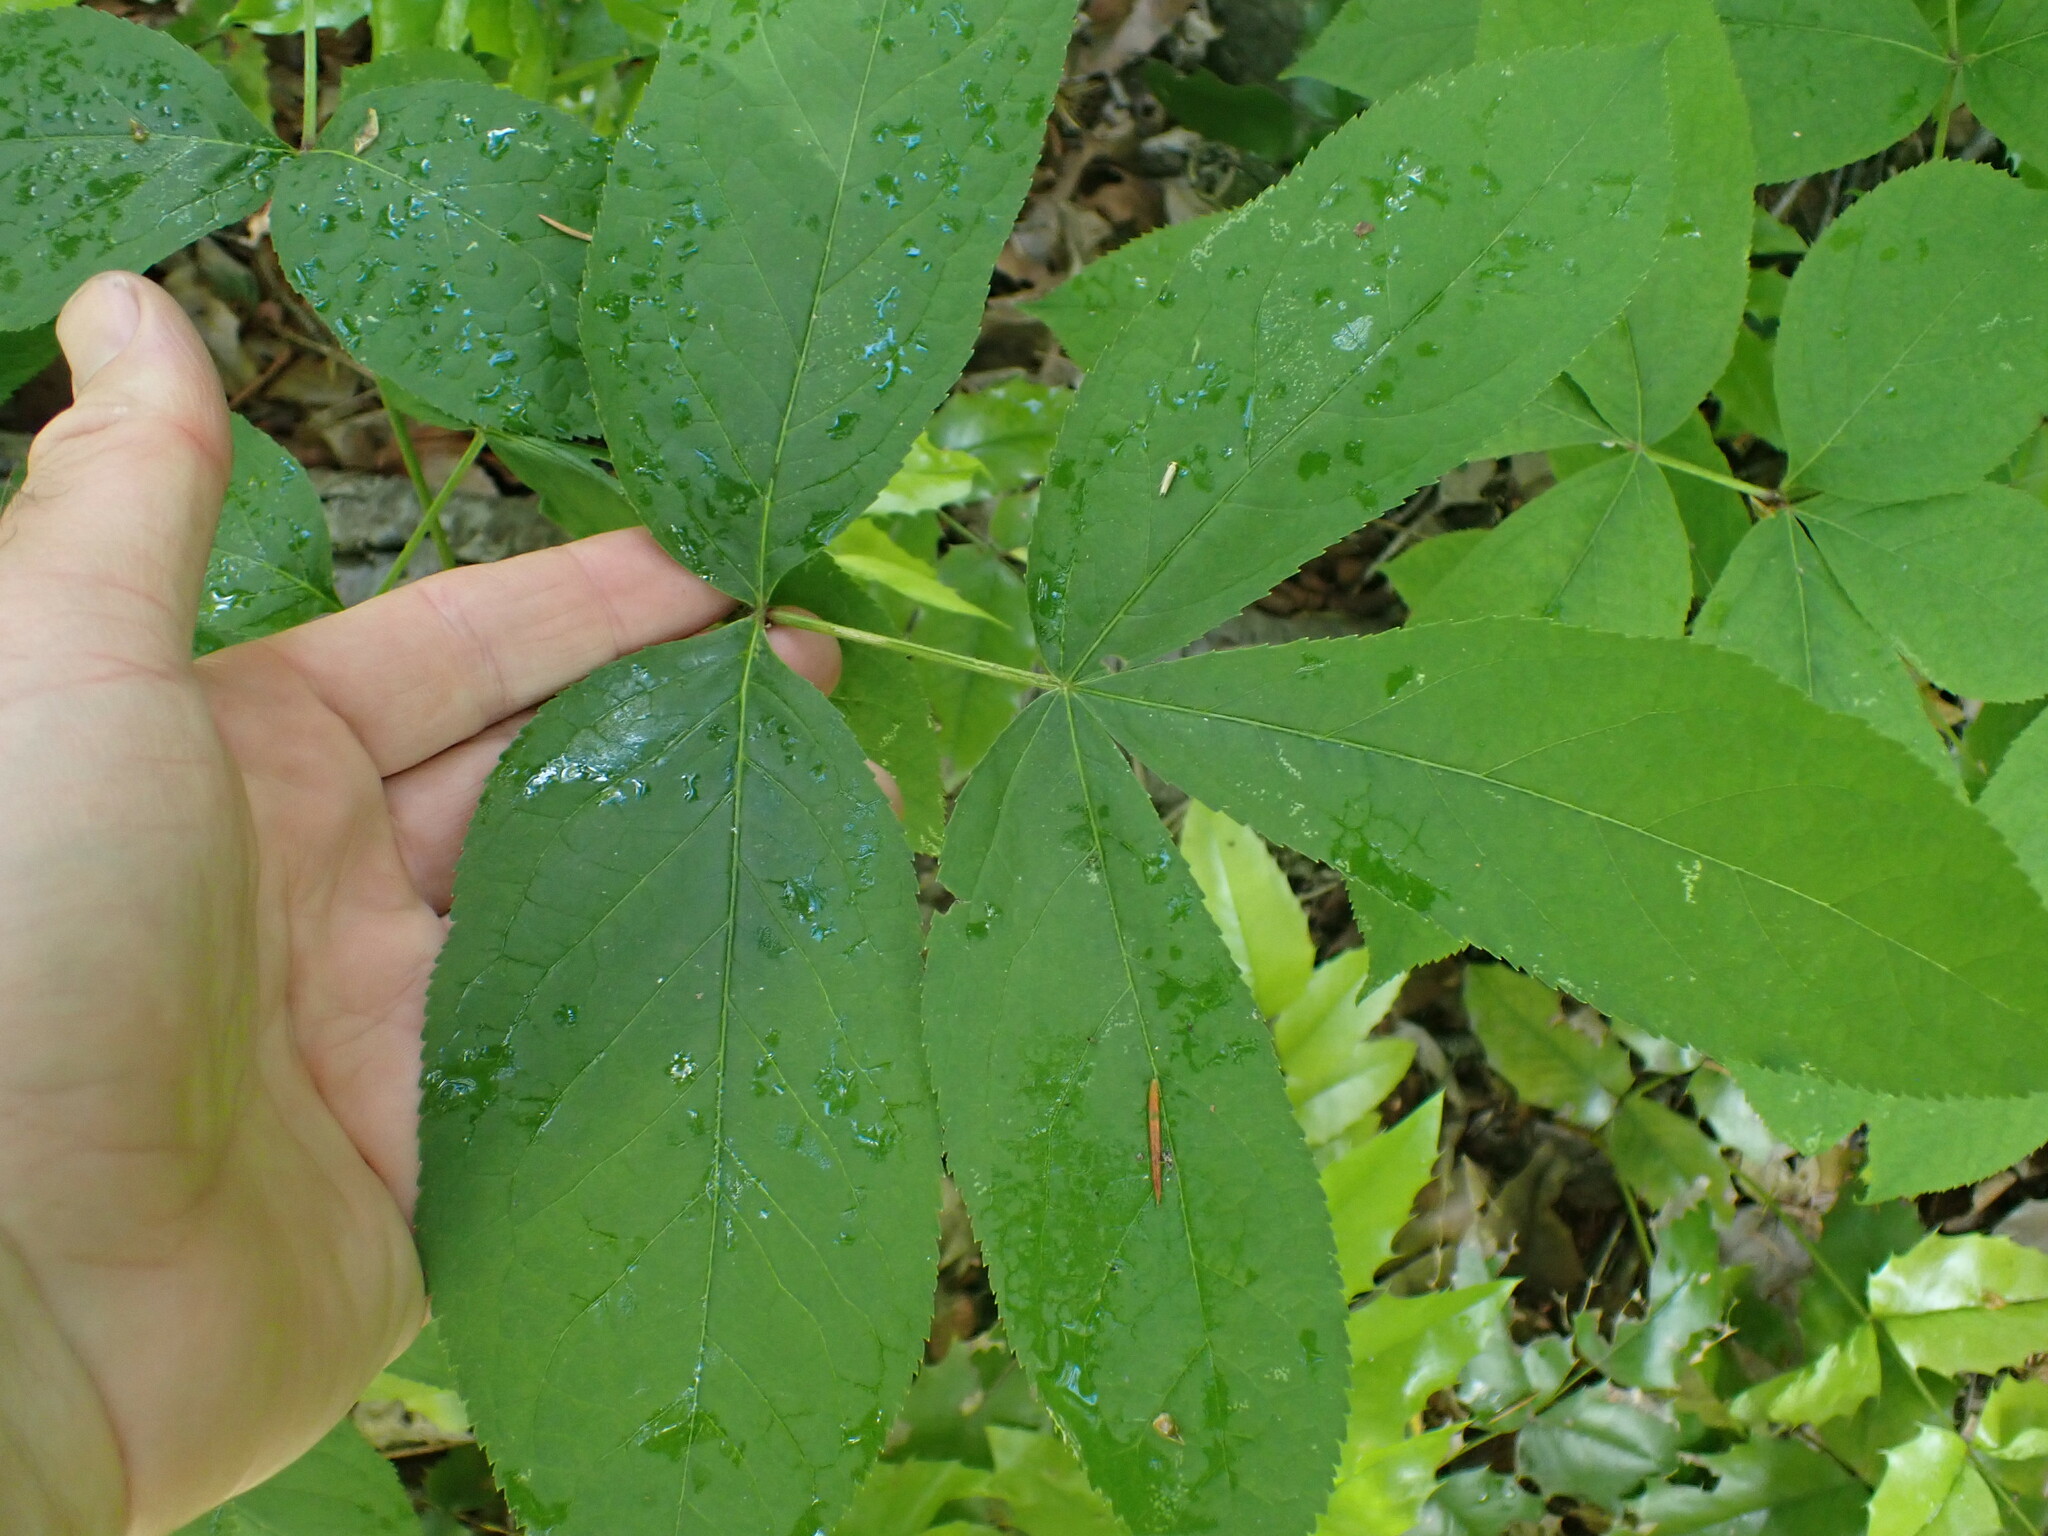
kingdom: Plantae
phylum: Tracheophyta
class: Magnoliopsida
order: Apiales
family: Araliaceae
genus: Aralia
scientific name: Aralia nudicaulis
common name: Wild sarsaparilla
